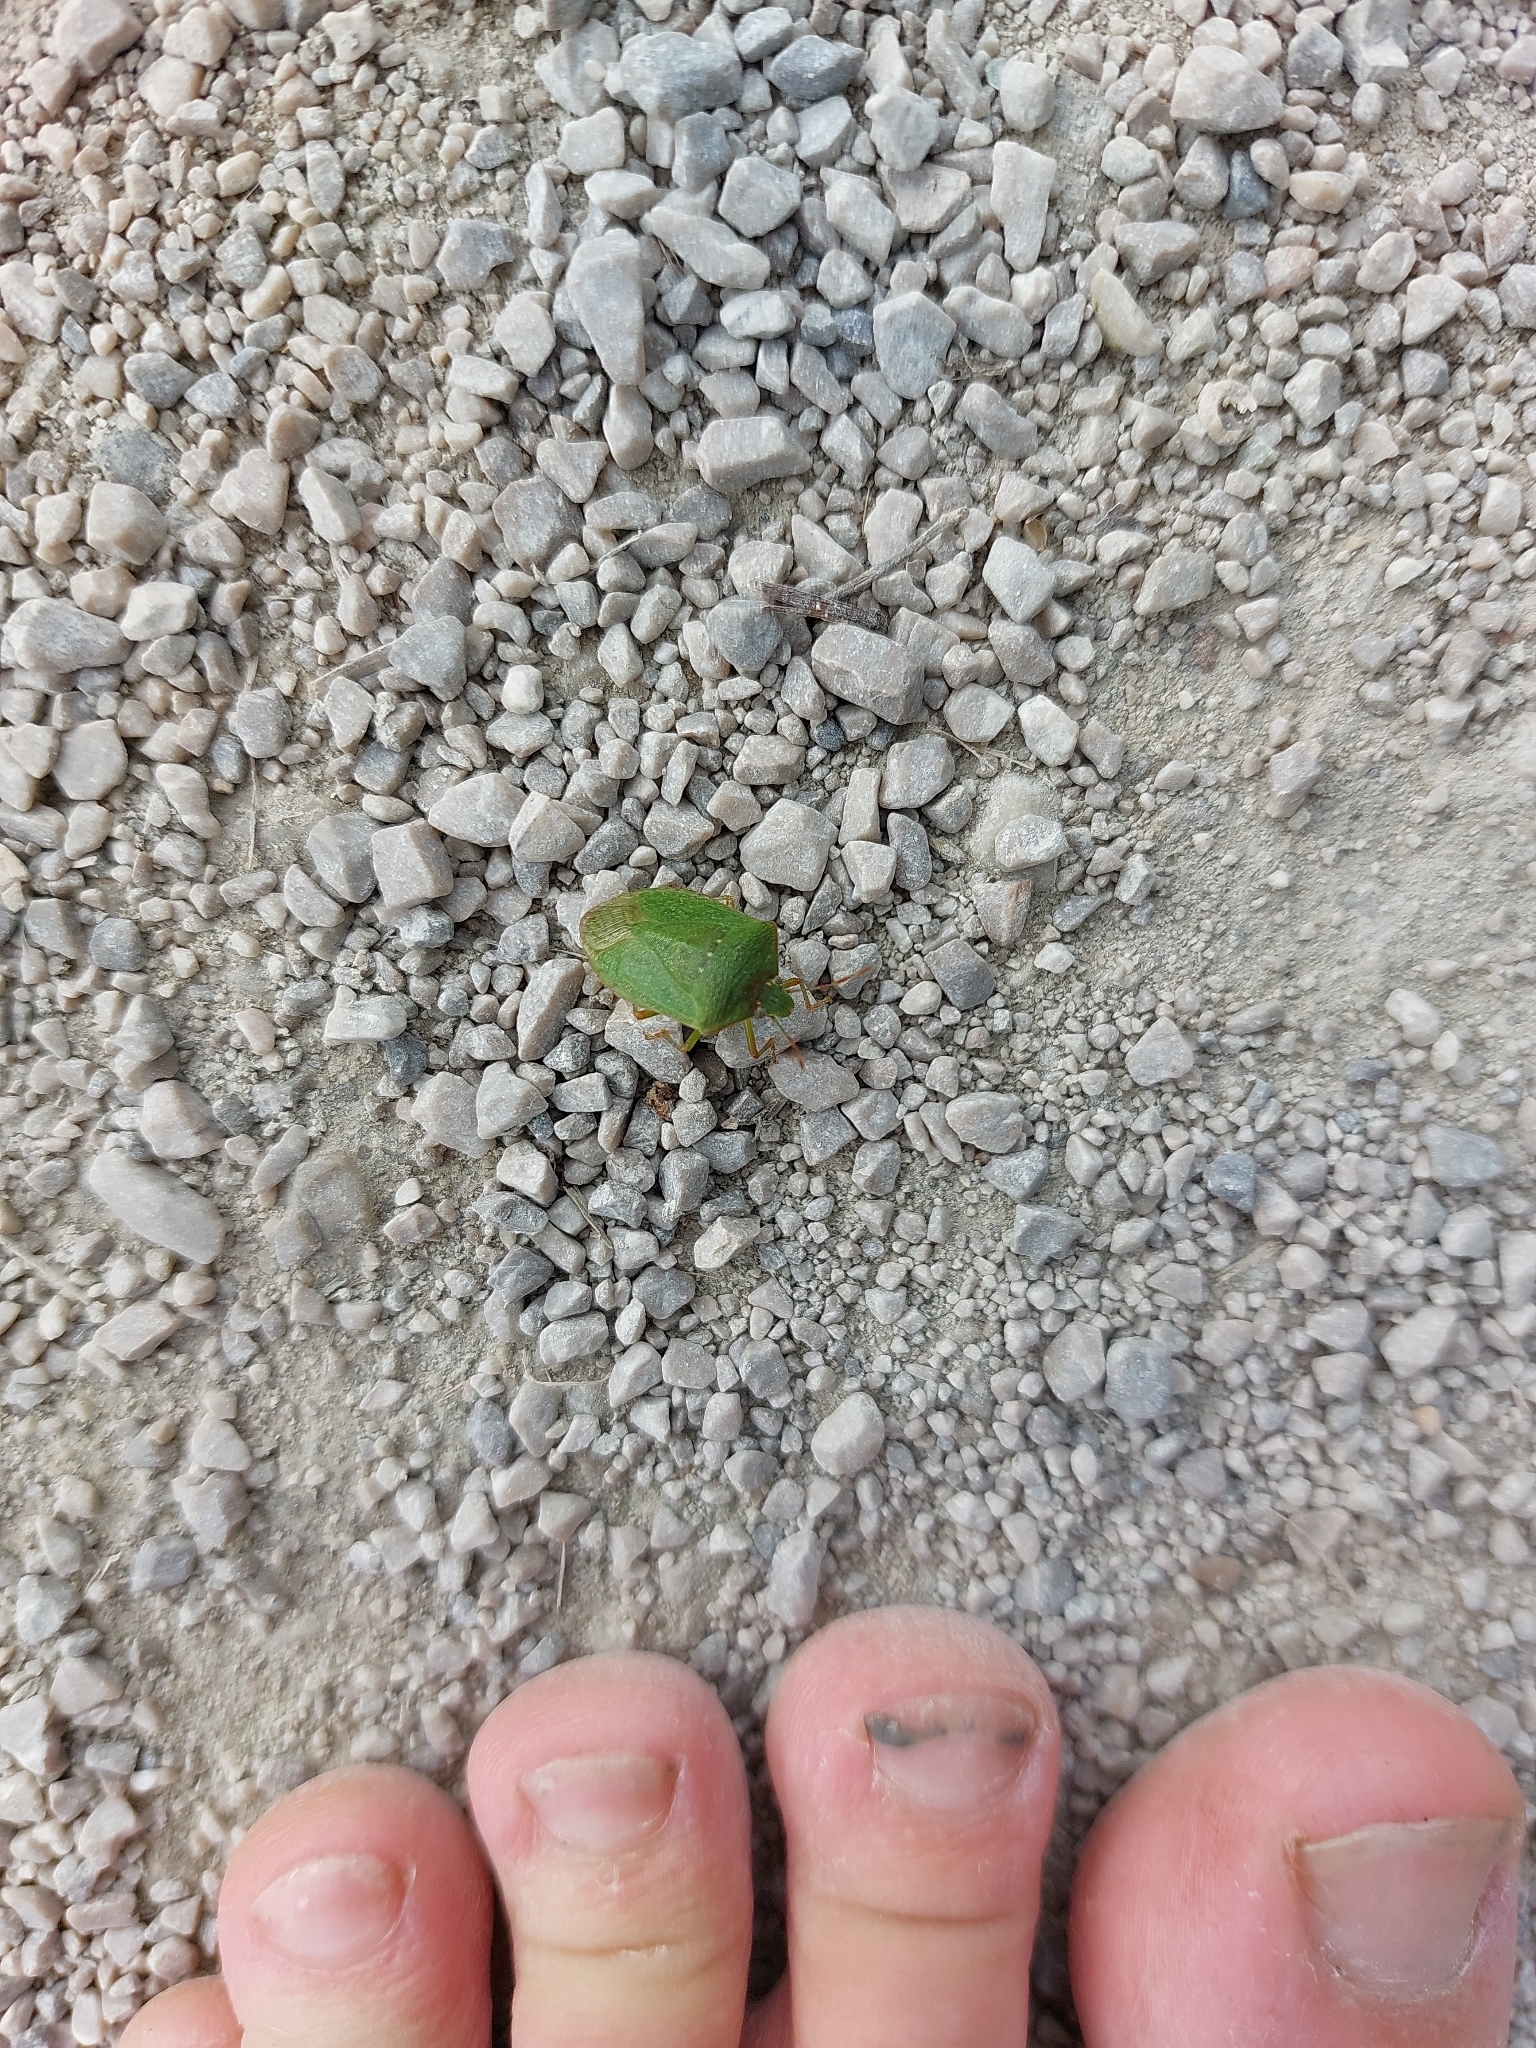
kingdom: Animalia
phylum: Arthropoda
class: Insecta
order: Hemiptera
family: Pentatomidae
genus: Nezara
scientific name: Nezara viridula
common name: Southern green stink bug
